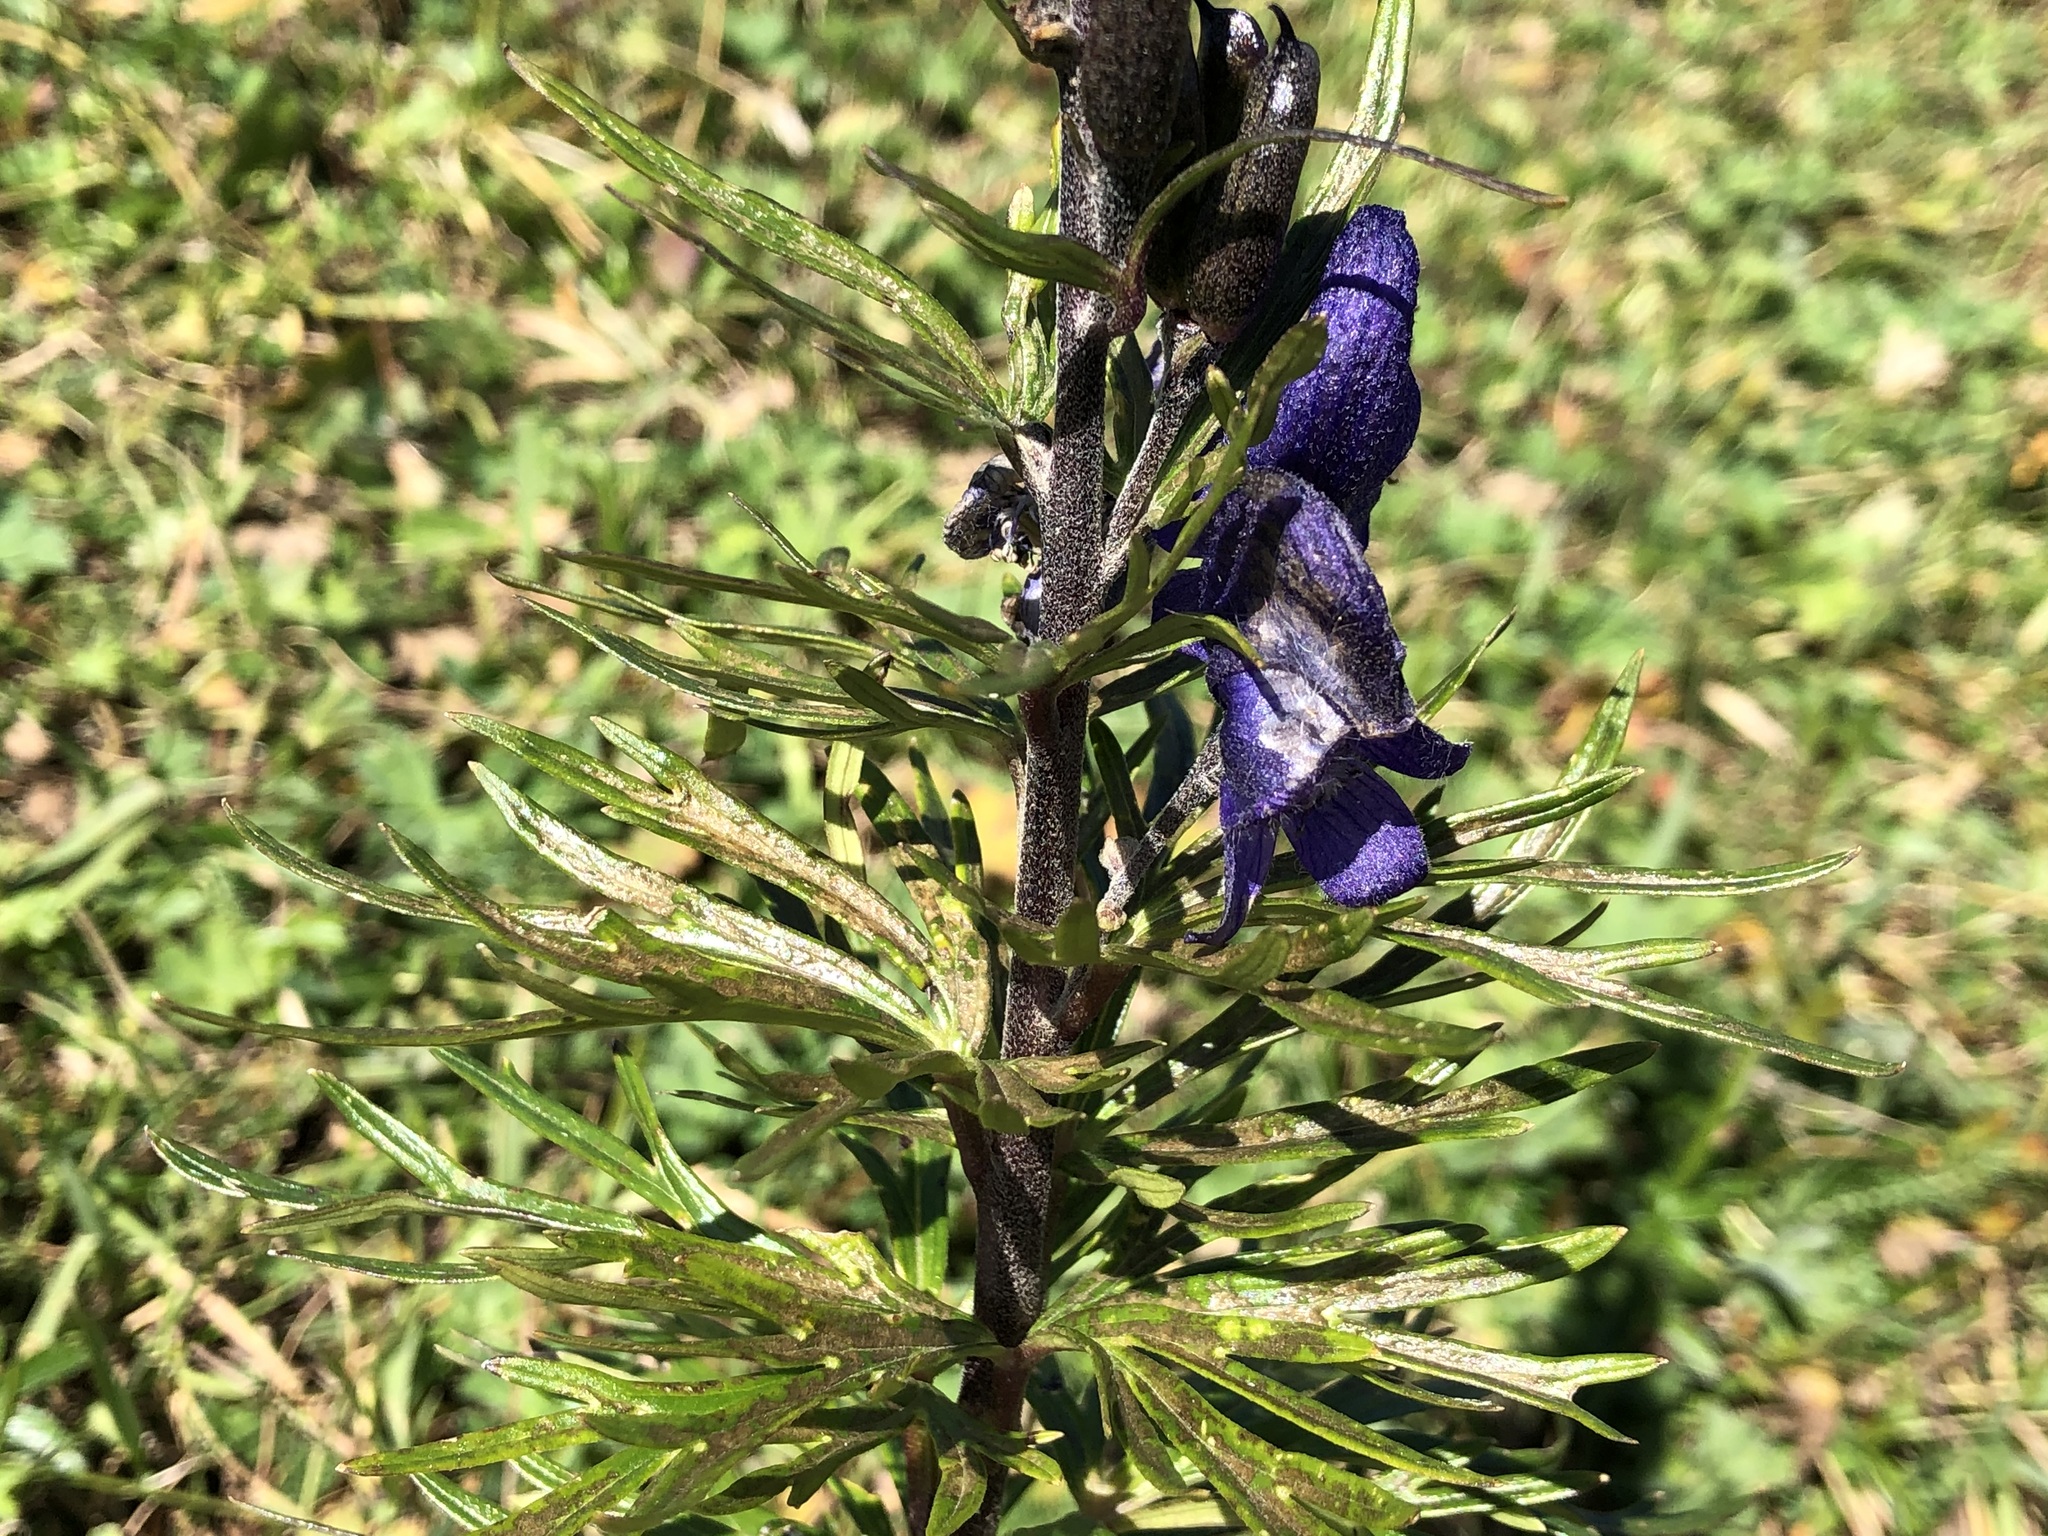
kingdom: Plantae
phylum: Tracheophyta
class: Magnoliopsida
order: Ranunculales
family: Ranunculaceae
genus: Aconitum
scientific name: Aconitum napellus
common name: Garden monkshood
